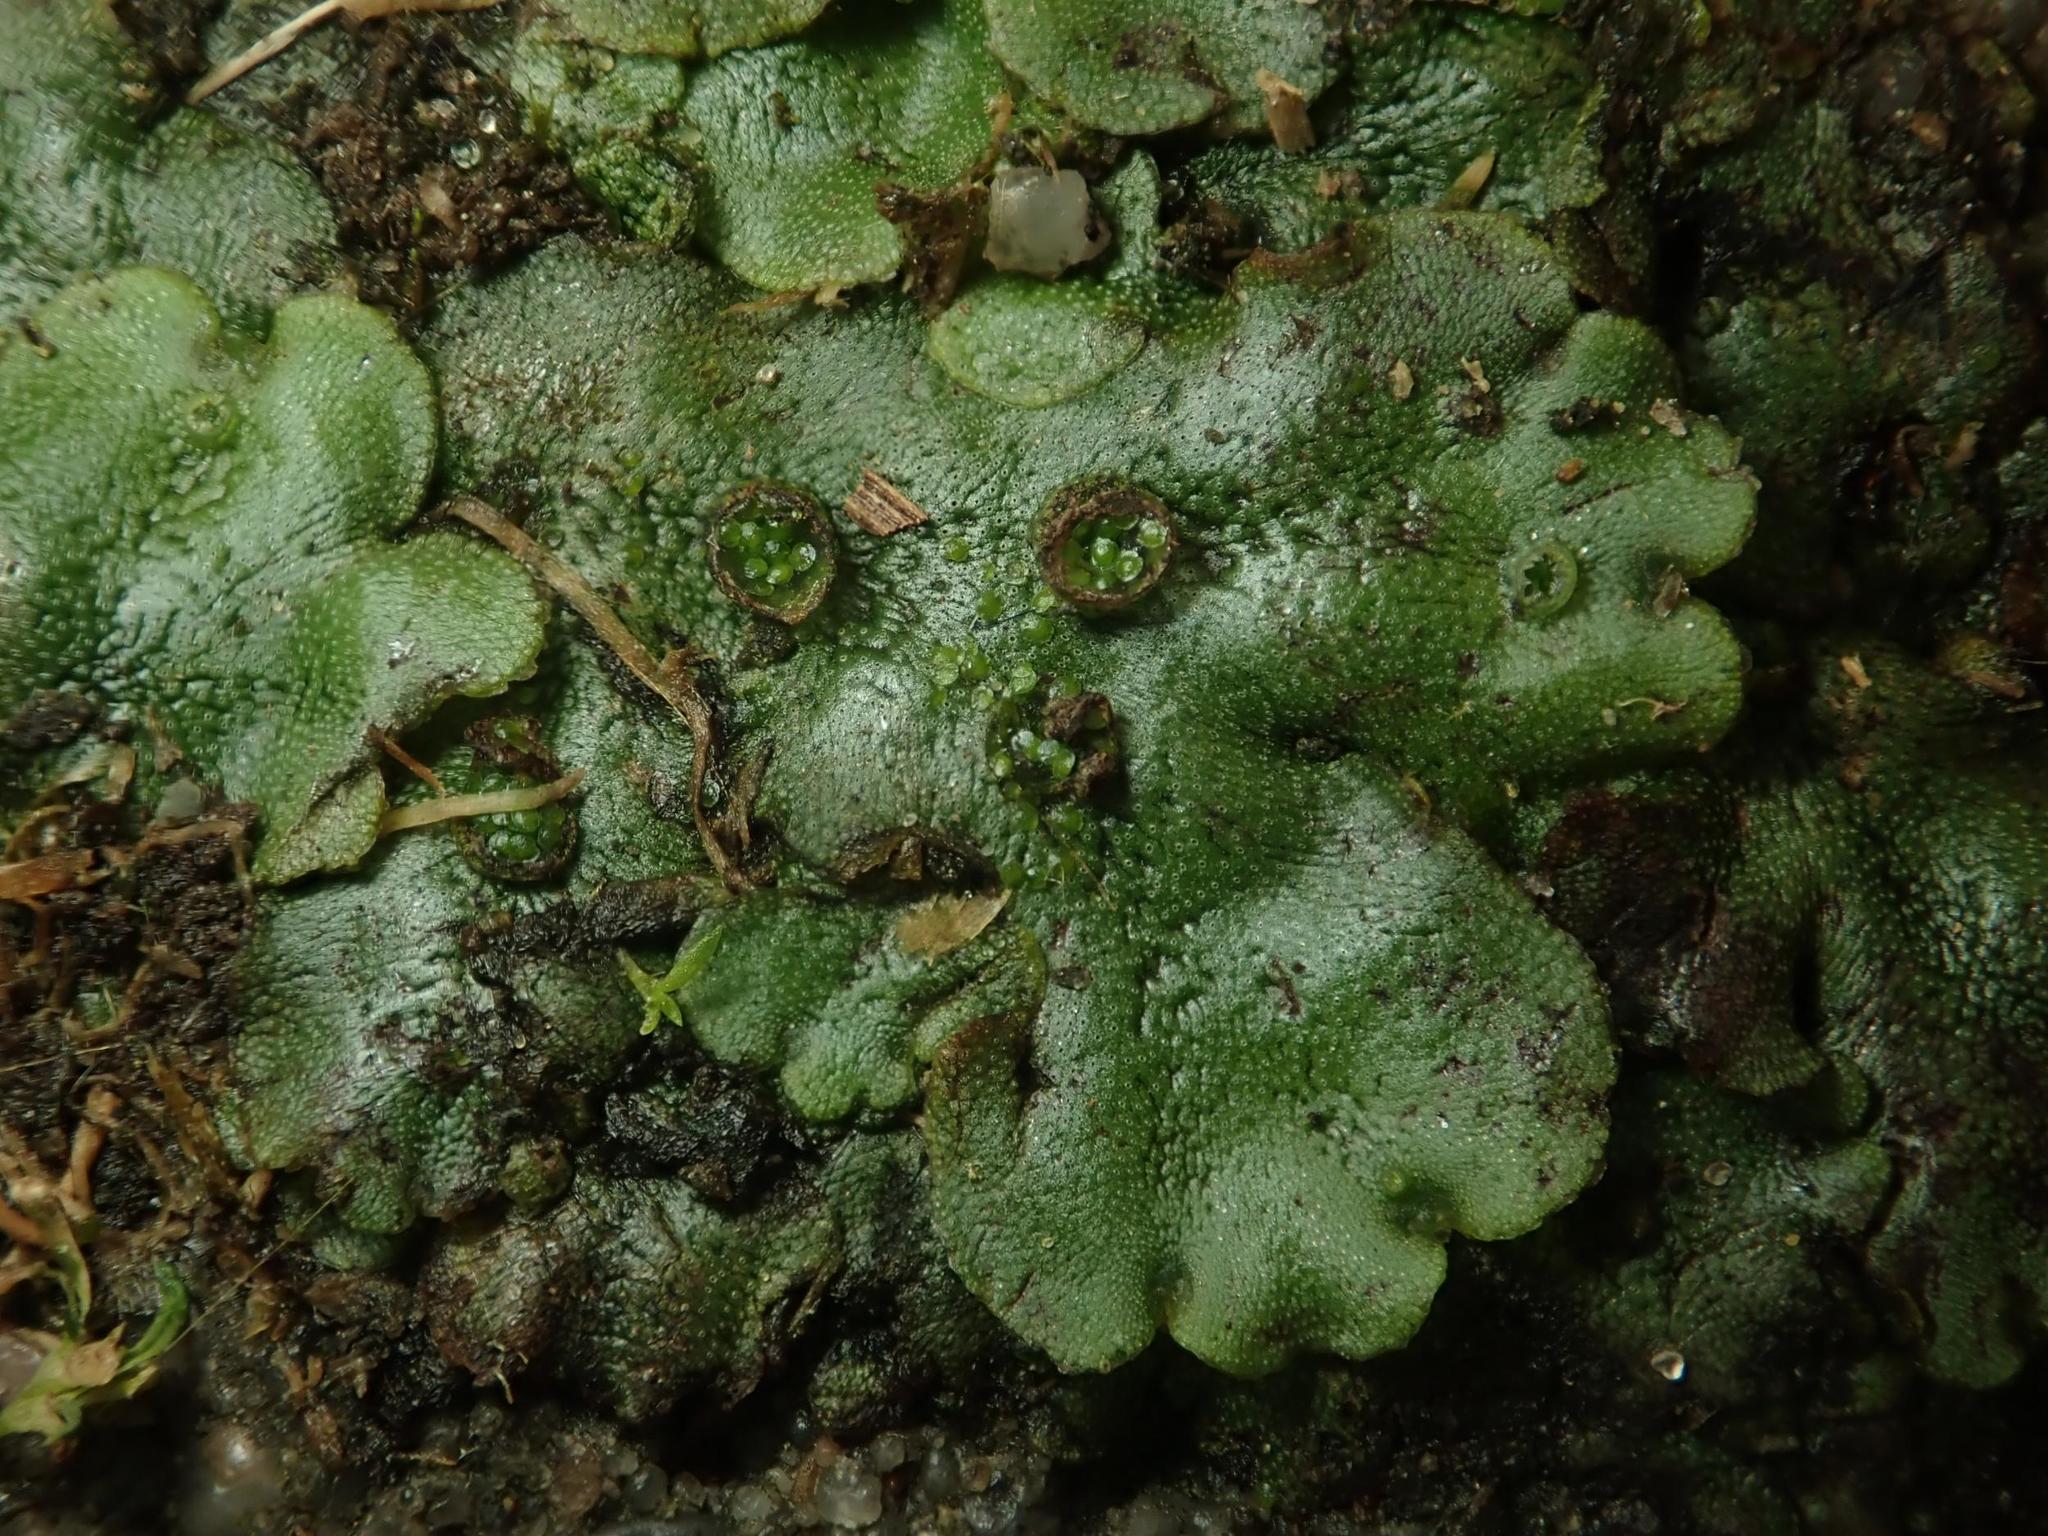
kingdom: Plantae
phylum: Marchantiophyta
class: Marchantiopsida
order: Marchantiales
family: Marchantiaceae
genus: Marchantia
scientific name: Marchantia polymorpha
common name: Common liverwort
